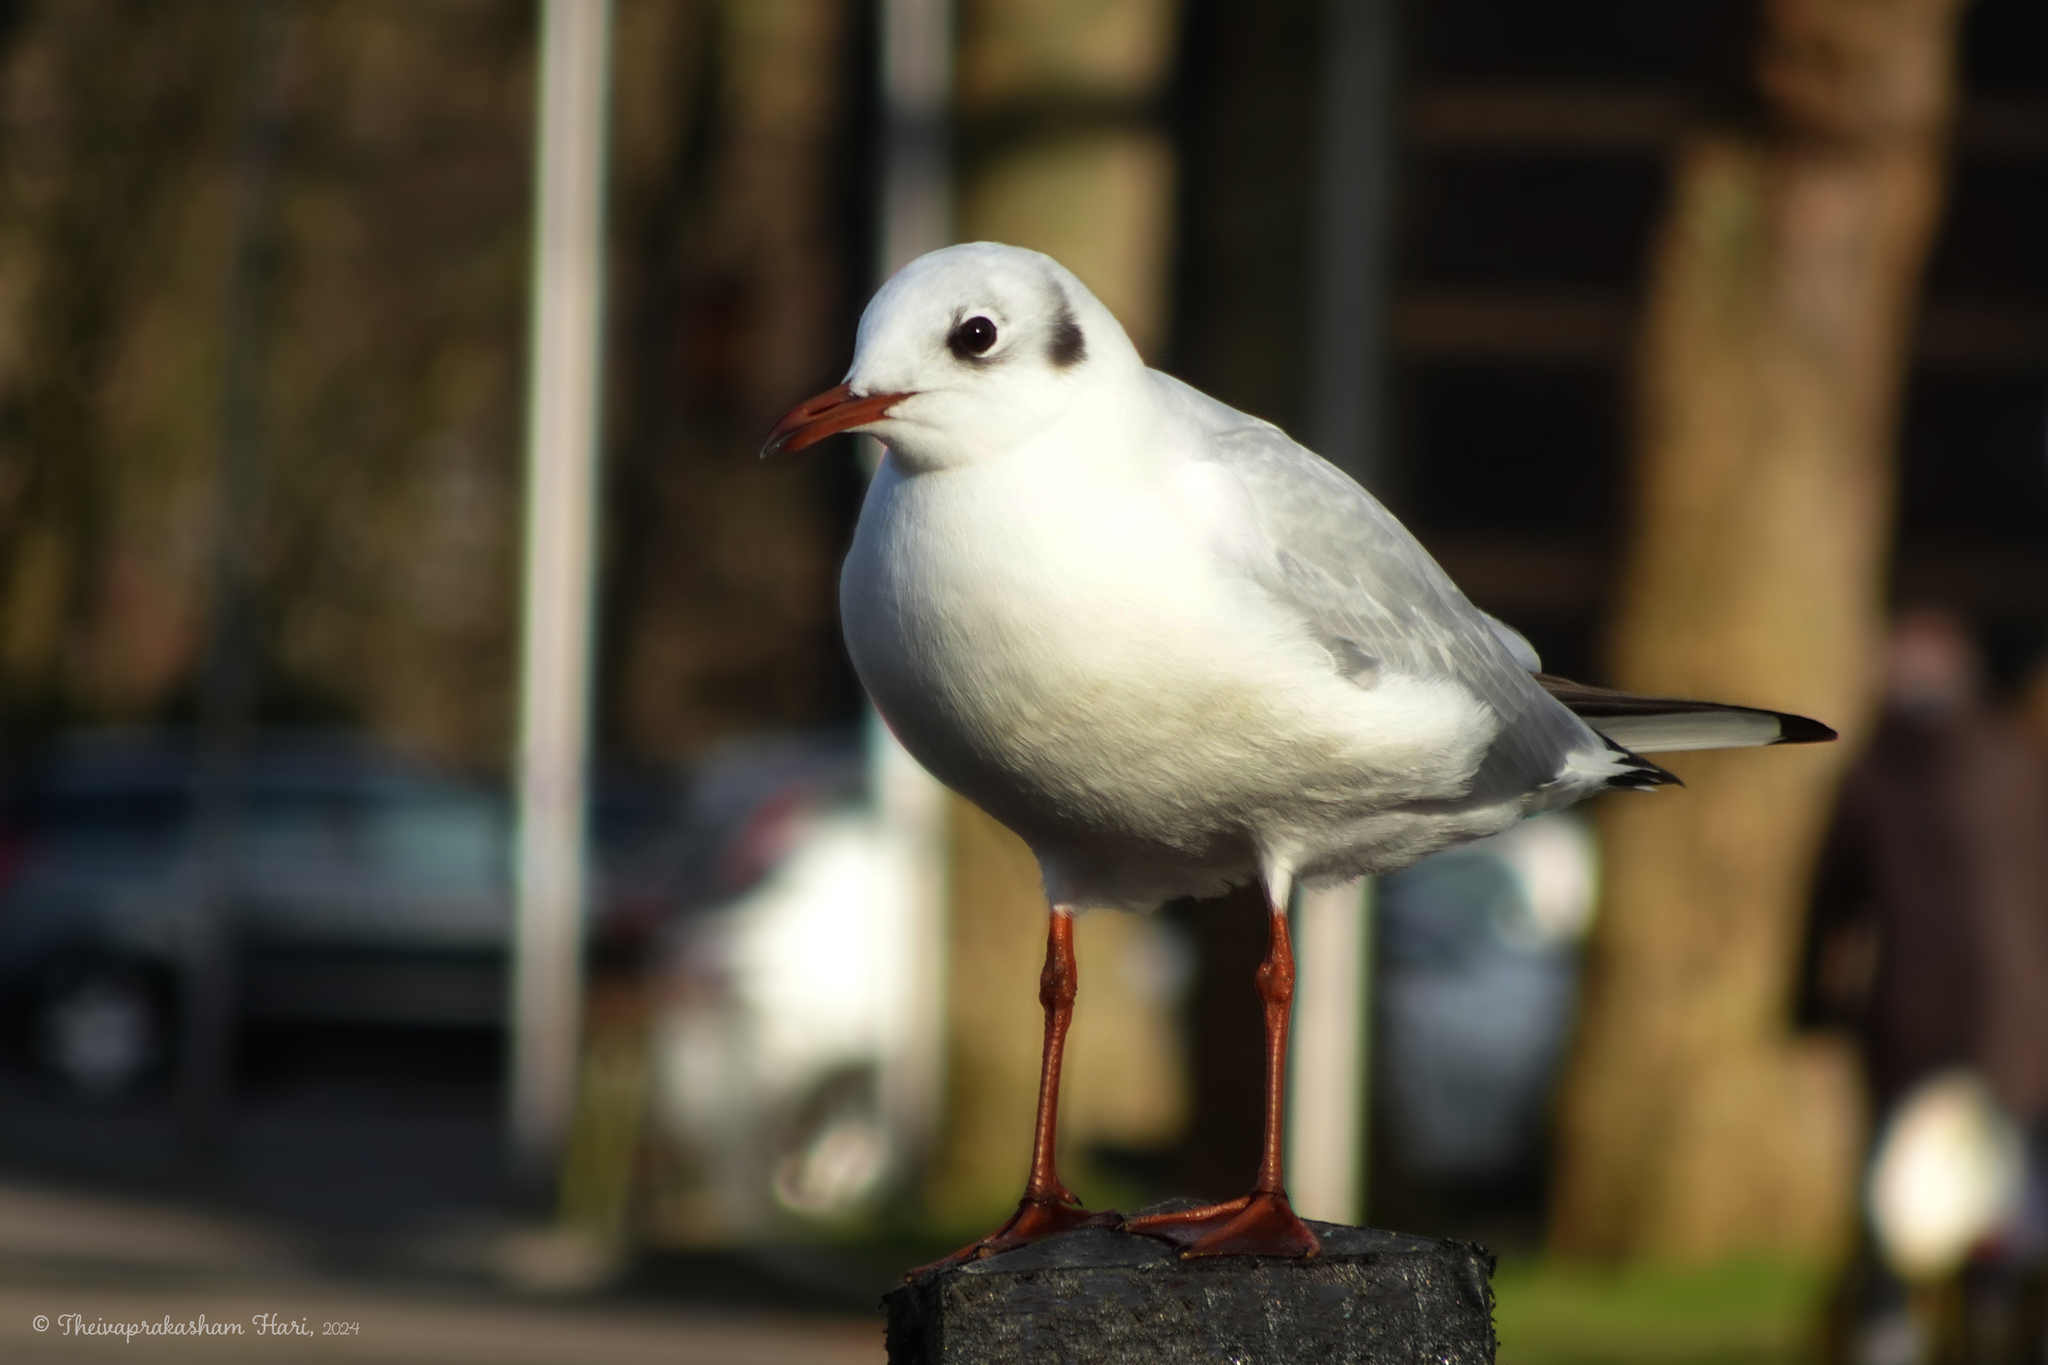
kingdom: Animalia
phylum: Chordata
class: Aves
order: Charadriiformes
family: Laridae
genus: Chroicocephalus
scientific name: Chroicocephalus ridibundus
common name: Black-headed gull
